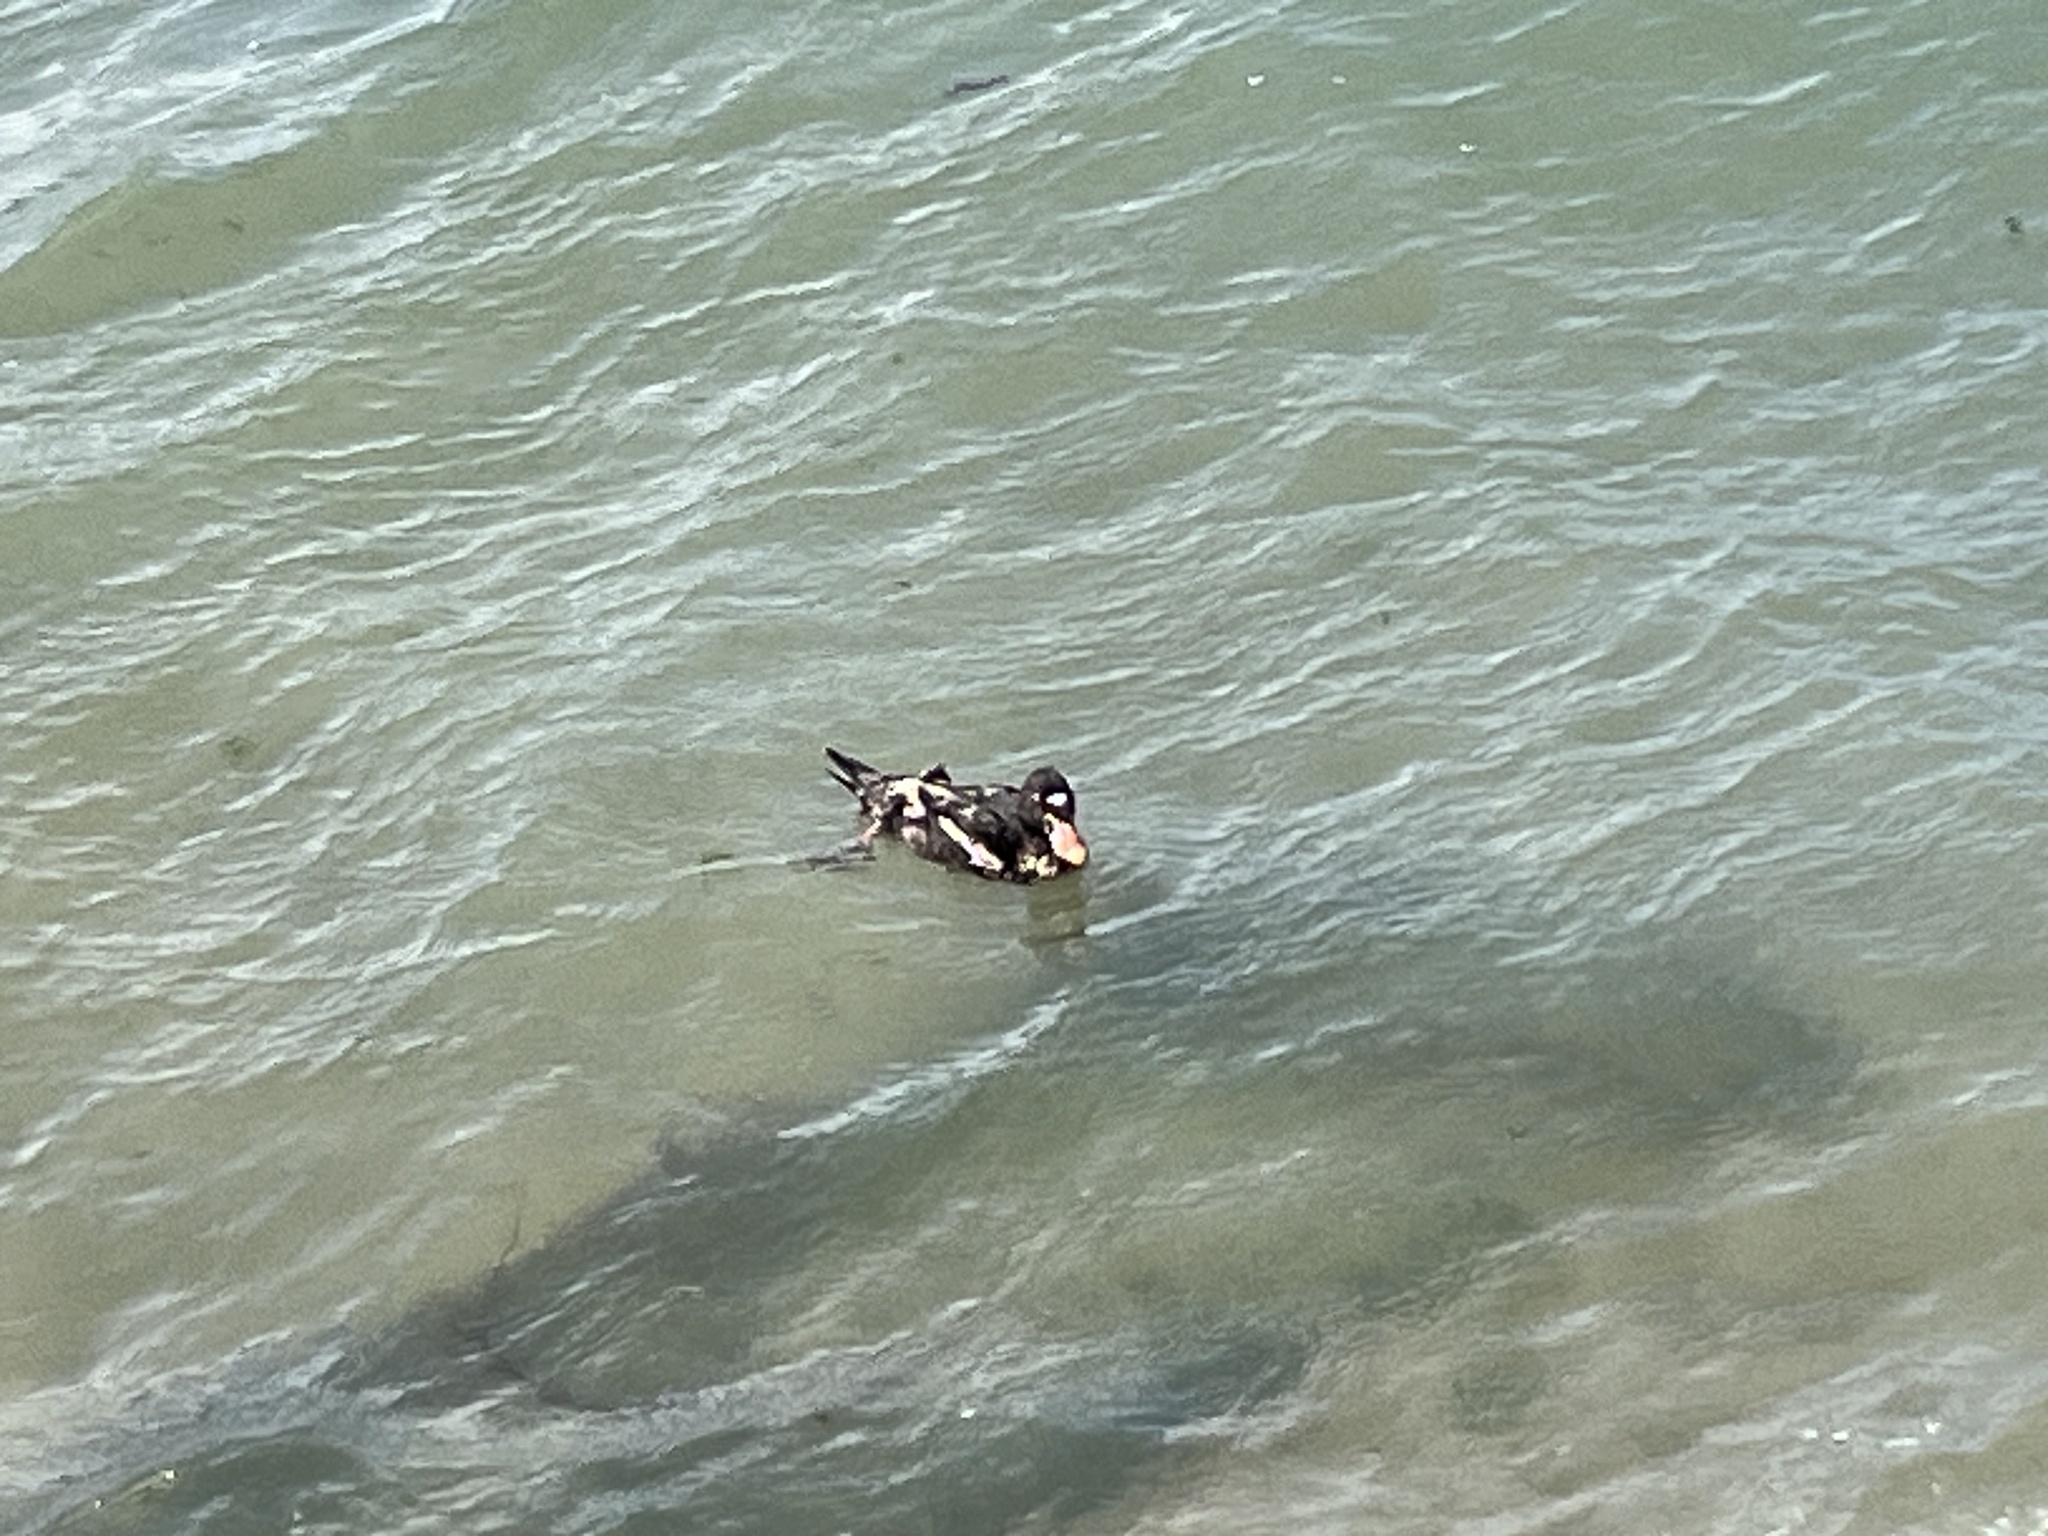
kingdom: Animalia
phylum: Chordata
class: Aves
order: Anseriformes
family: Anatidae
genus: Melanitta
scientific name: Melanitta perspicillata
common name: Surf scoter
